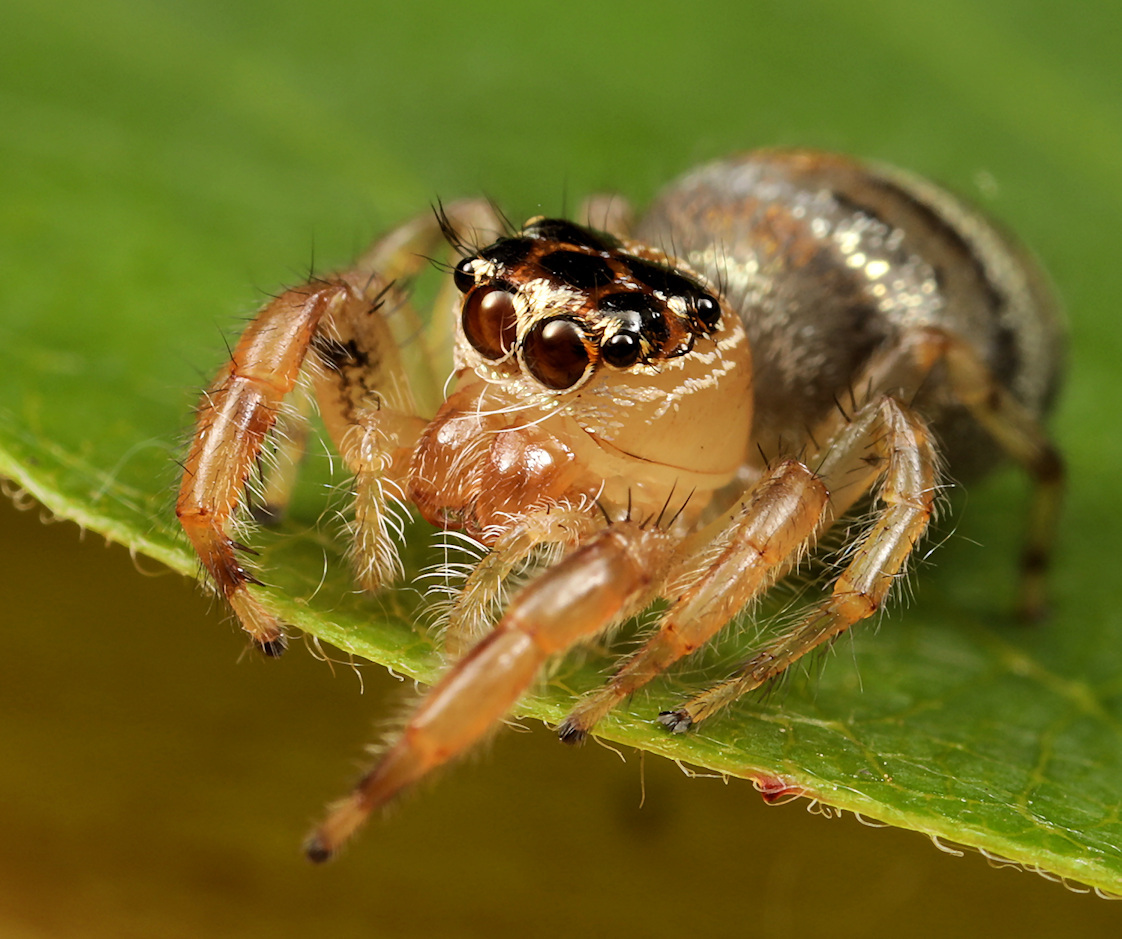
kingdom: Animalia
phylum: Arthropoda
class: Arachnida
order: Araneae
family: Salticidae
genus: Thyene
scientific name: Thyene natalii
